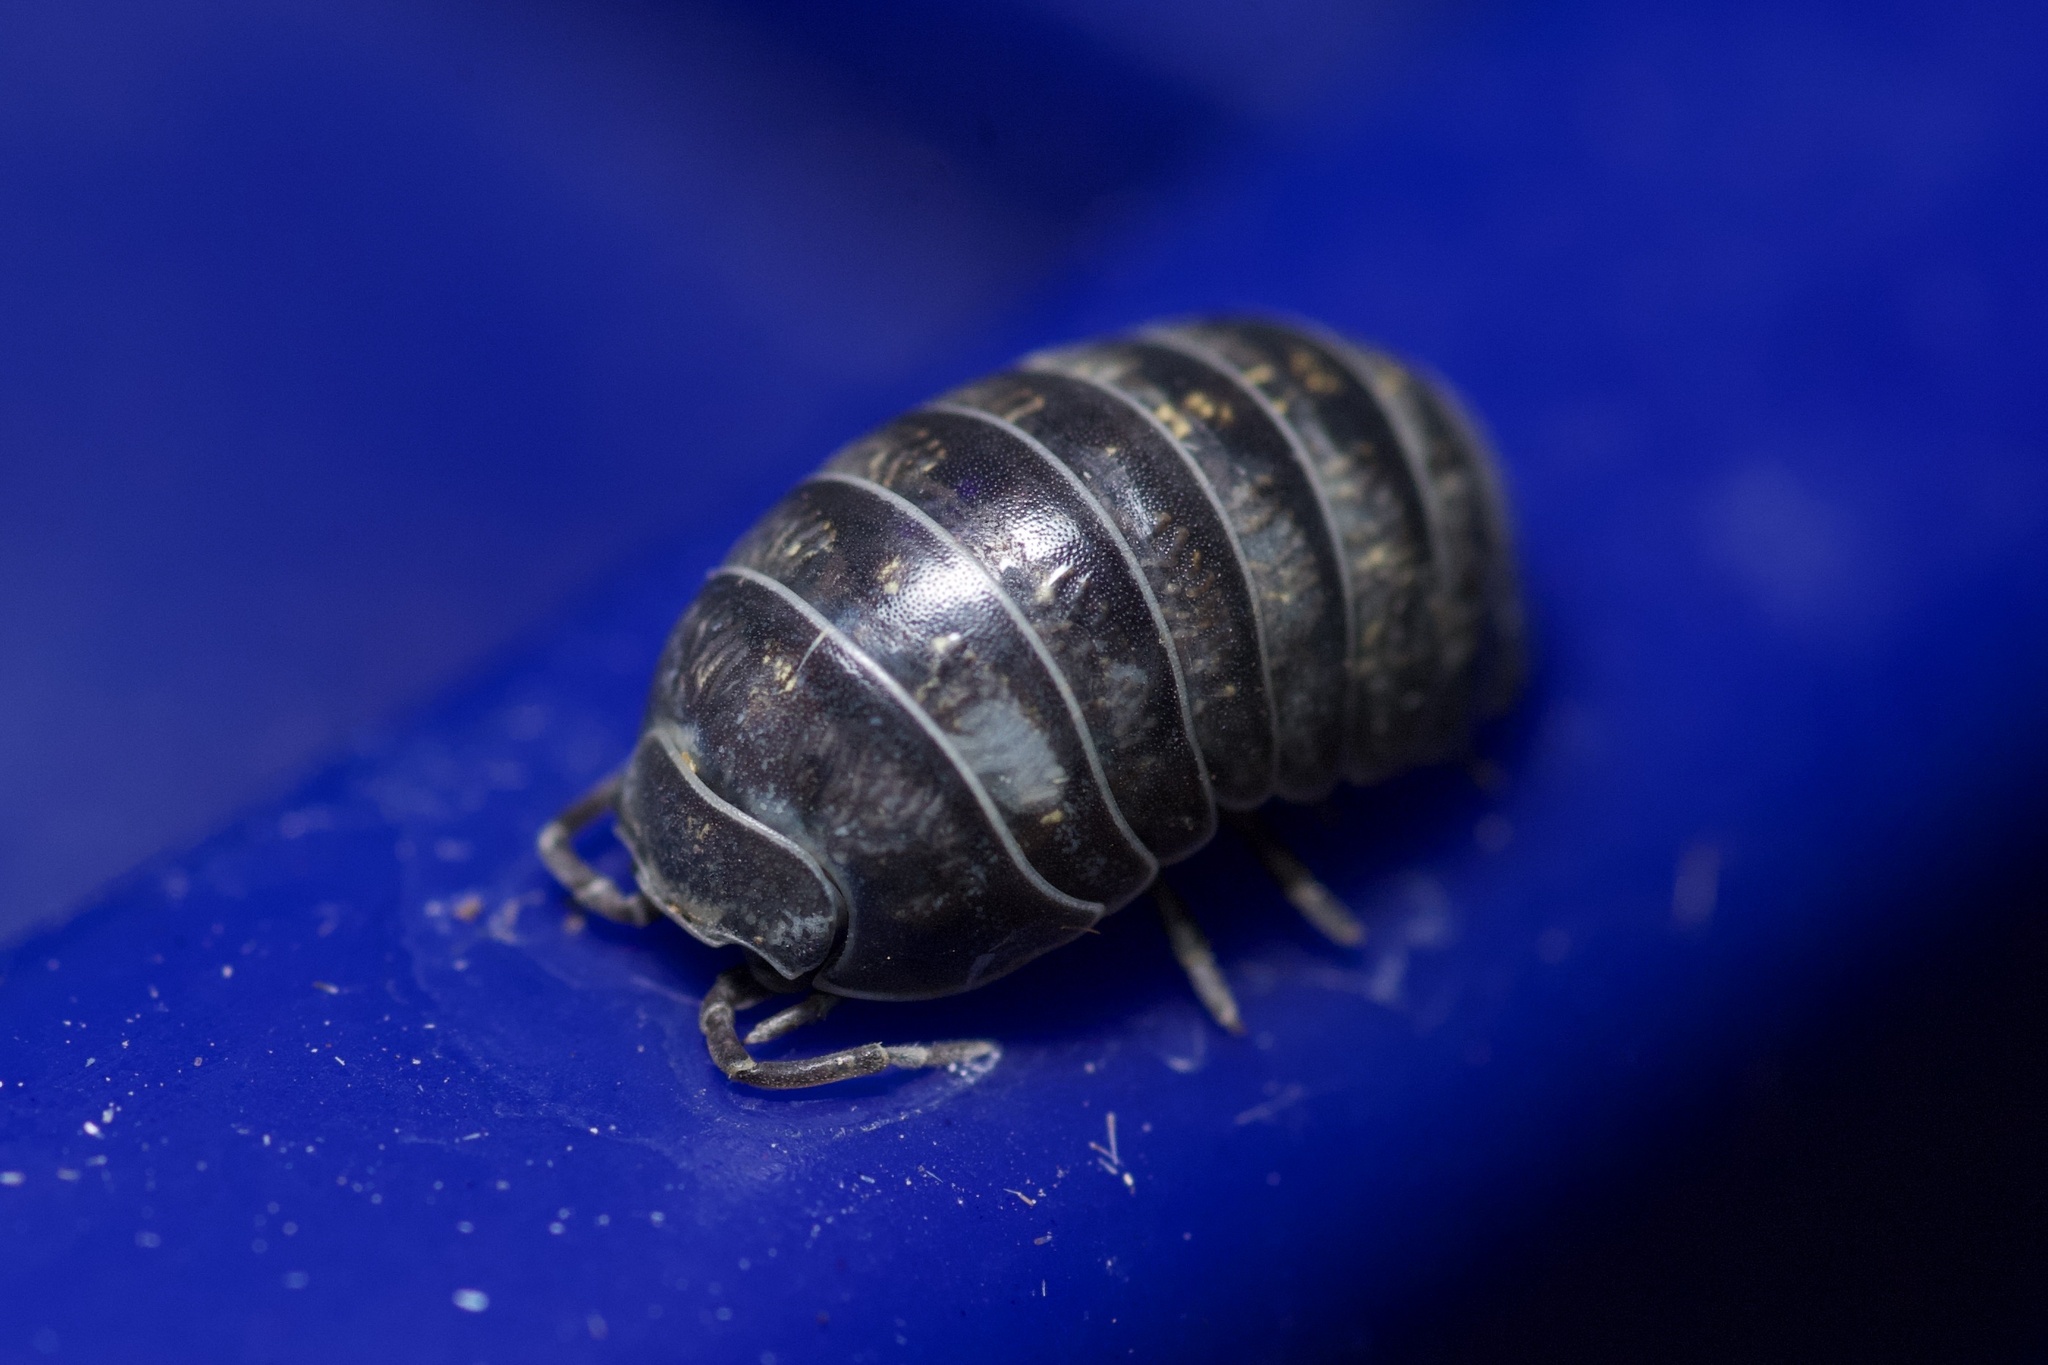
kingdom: Animalia
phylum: Arthropoda
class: Malacostraca
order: Isopoda
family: Armadillidiidae
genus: Armadillidium
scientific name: Armadillidium vulgare
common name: Common pill woodlouse
